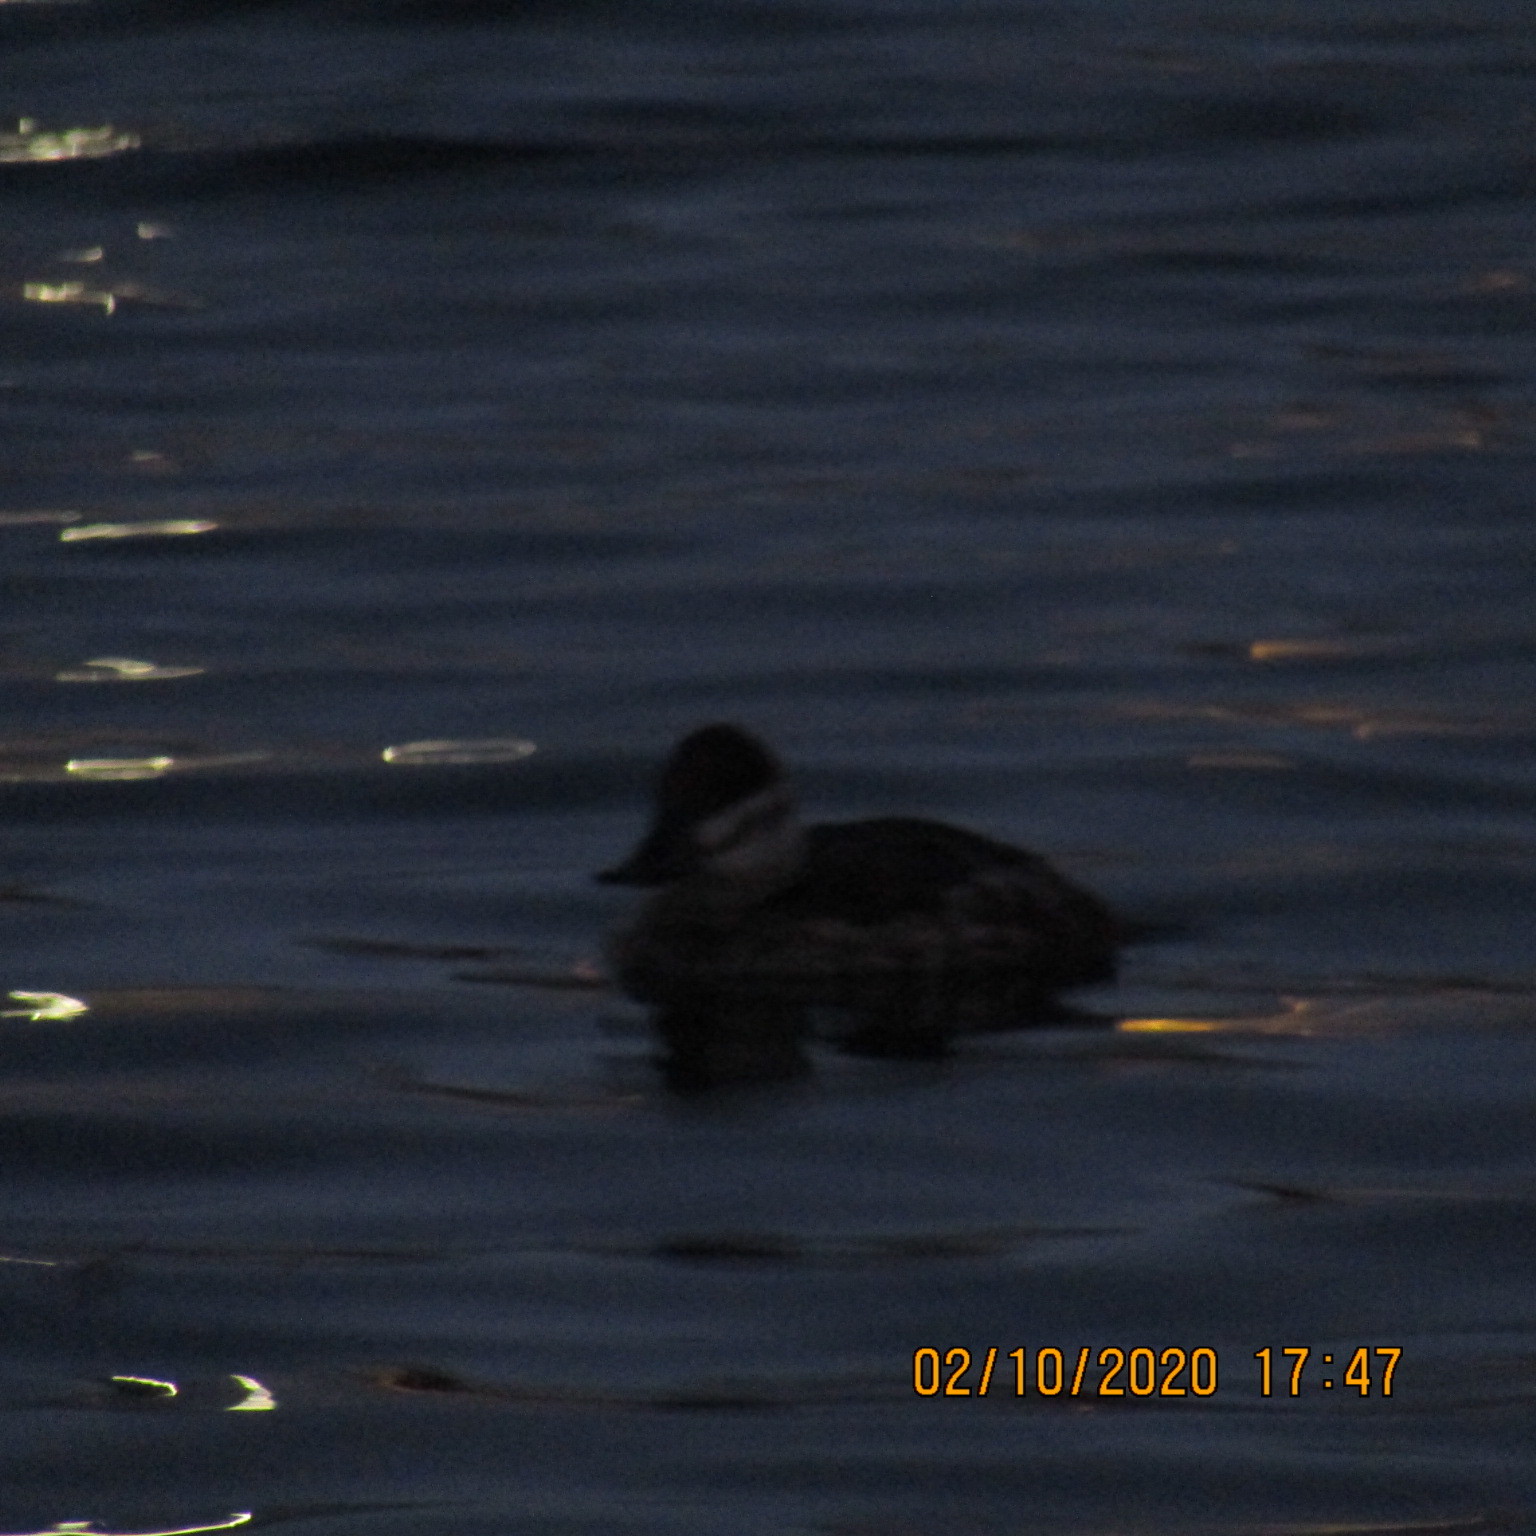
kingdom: Animalia
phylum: Chordata
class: Aves
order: Anseriformes
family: Anatidae
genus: Oxyura
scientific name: Oxyura jamaicensis
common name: Ruddy duck
